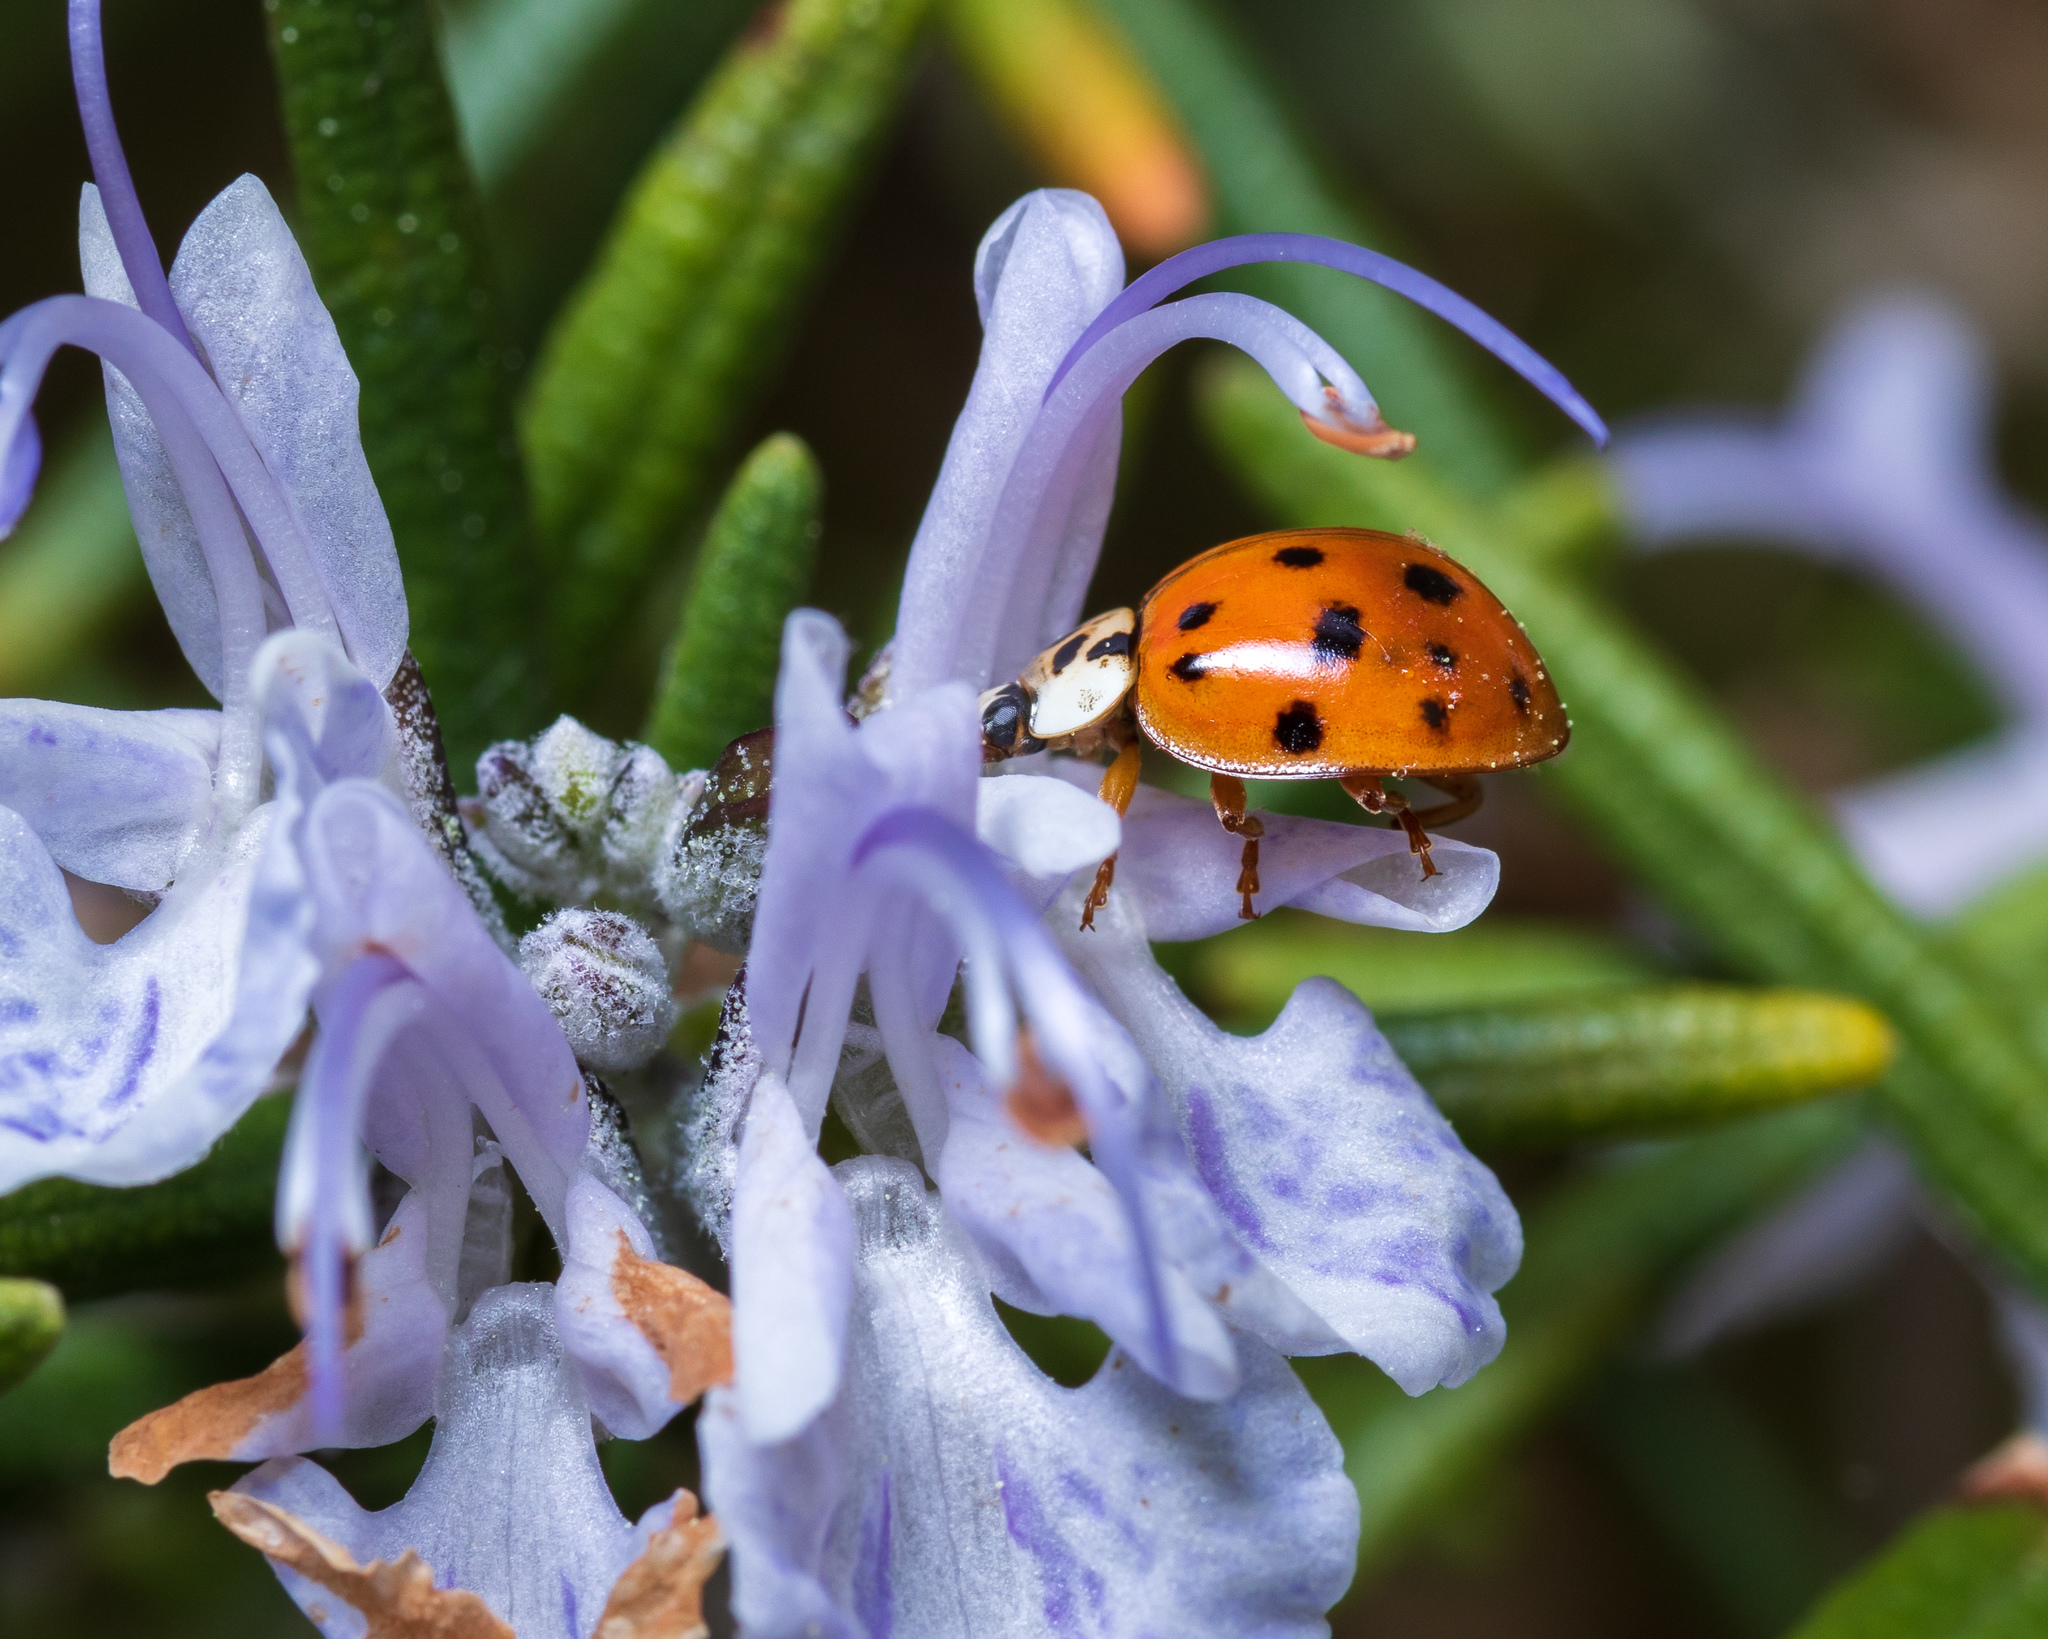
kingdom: Animalia
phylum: Arthropoda
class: Insecta
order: Coleoptera
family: Coccinellidae
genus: Harmonia
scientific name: Harmonia axyridis
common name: Harlequin ladybird
